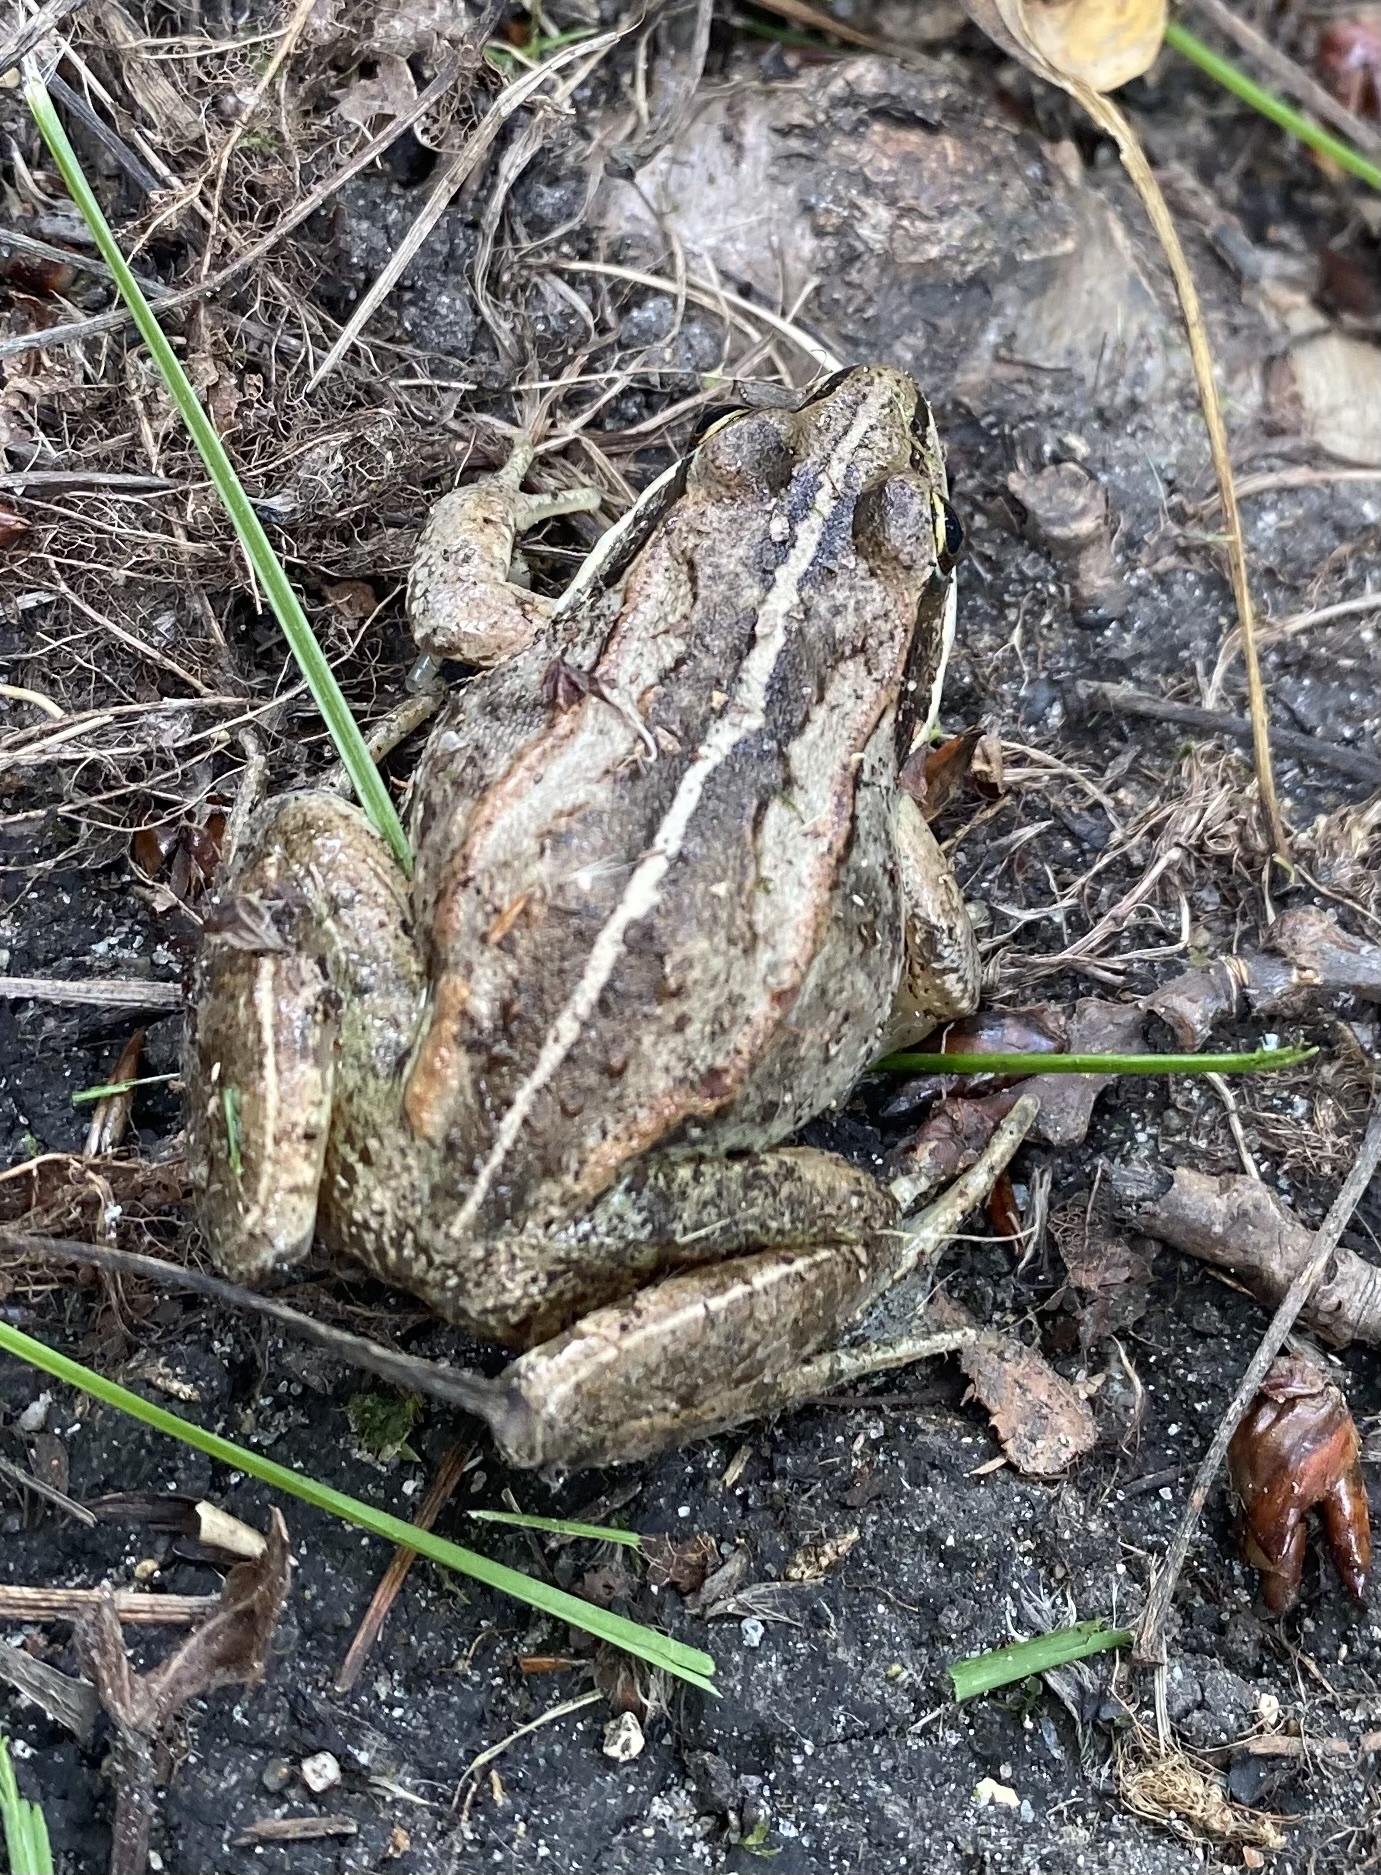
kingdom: Animalia
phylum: Chordata
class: Amphibia
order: Anura
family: Ranidae
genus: Lithobates
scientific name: Lithobates sylvaticus
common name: Wood frog
